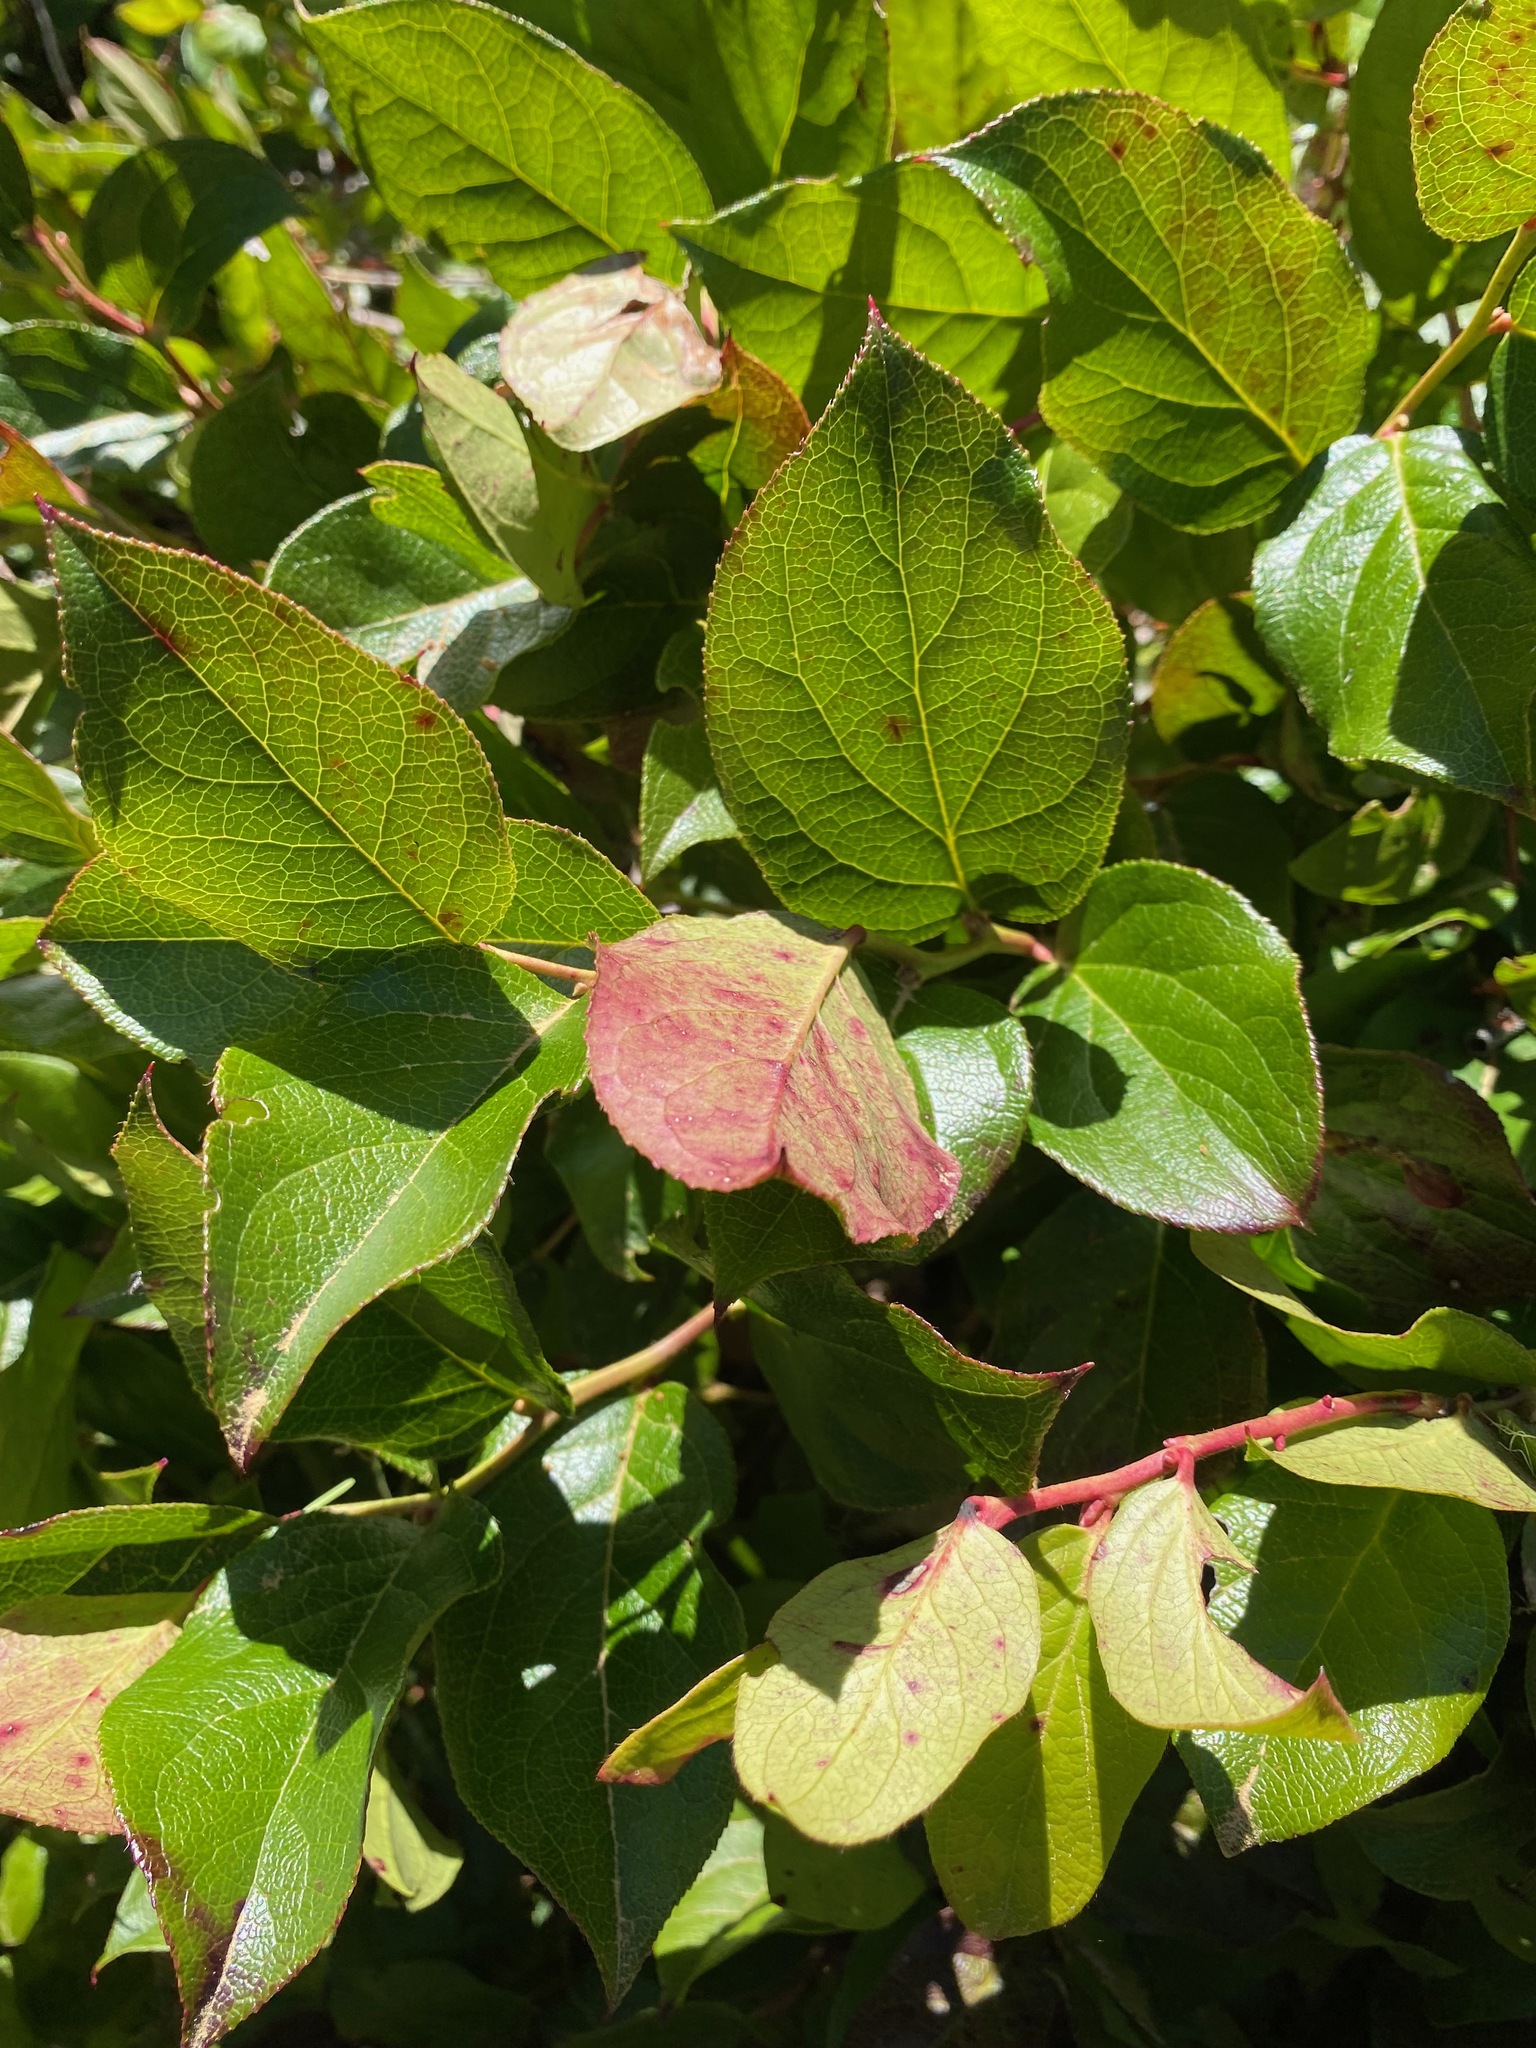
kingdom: Plantae
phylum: Tracheophyta
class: Magnoliopsida
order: Ericales
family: Ericaceae
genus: Gaultheria
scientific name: Gaultheria shallon
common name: Shallon
